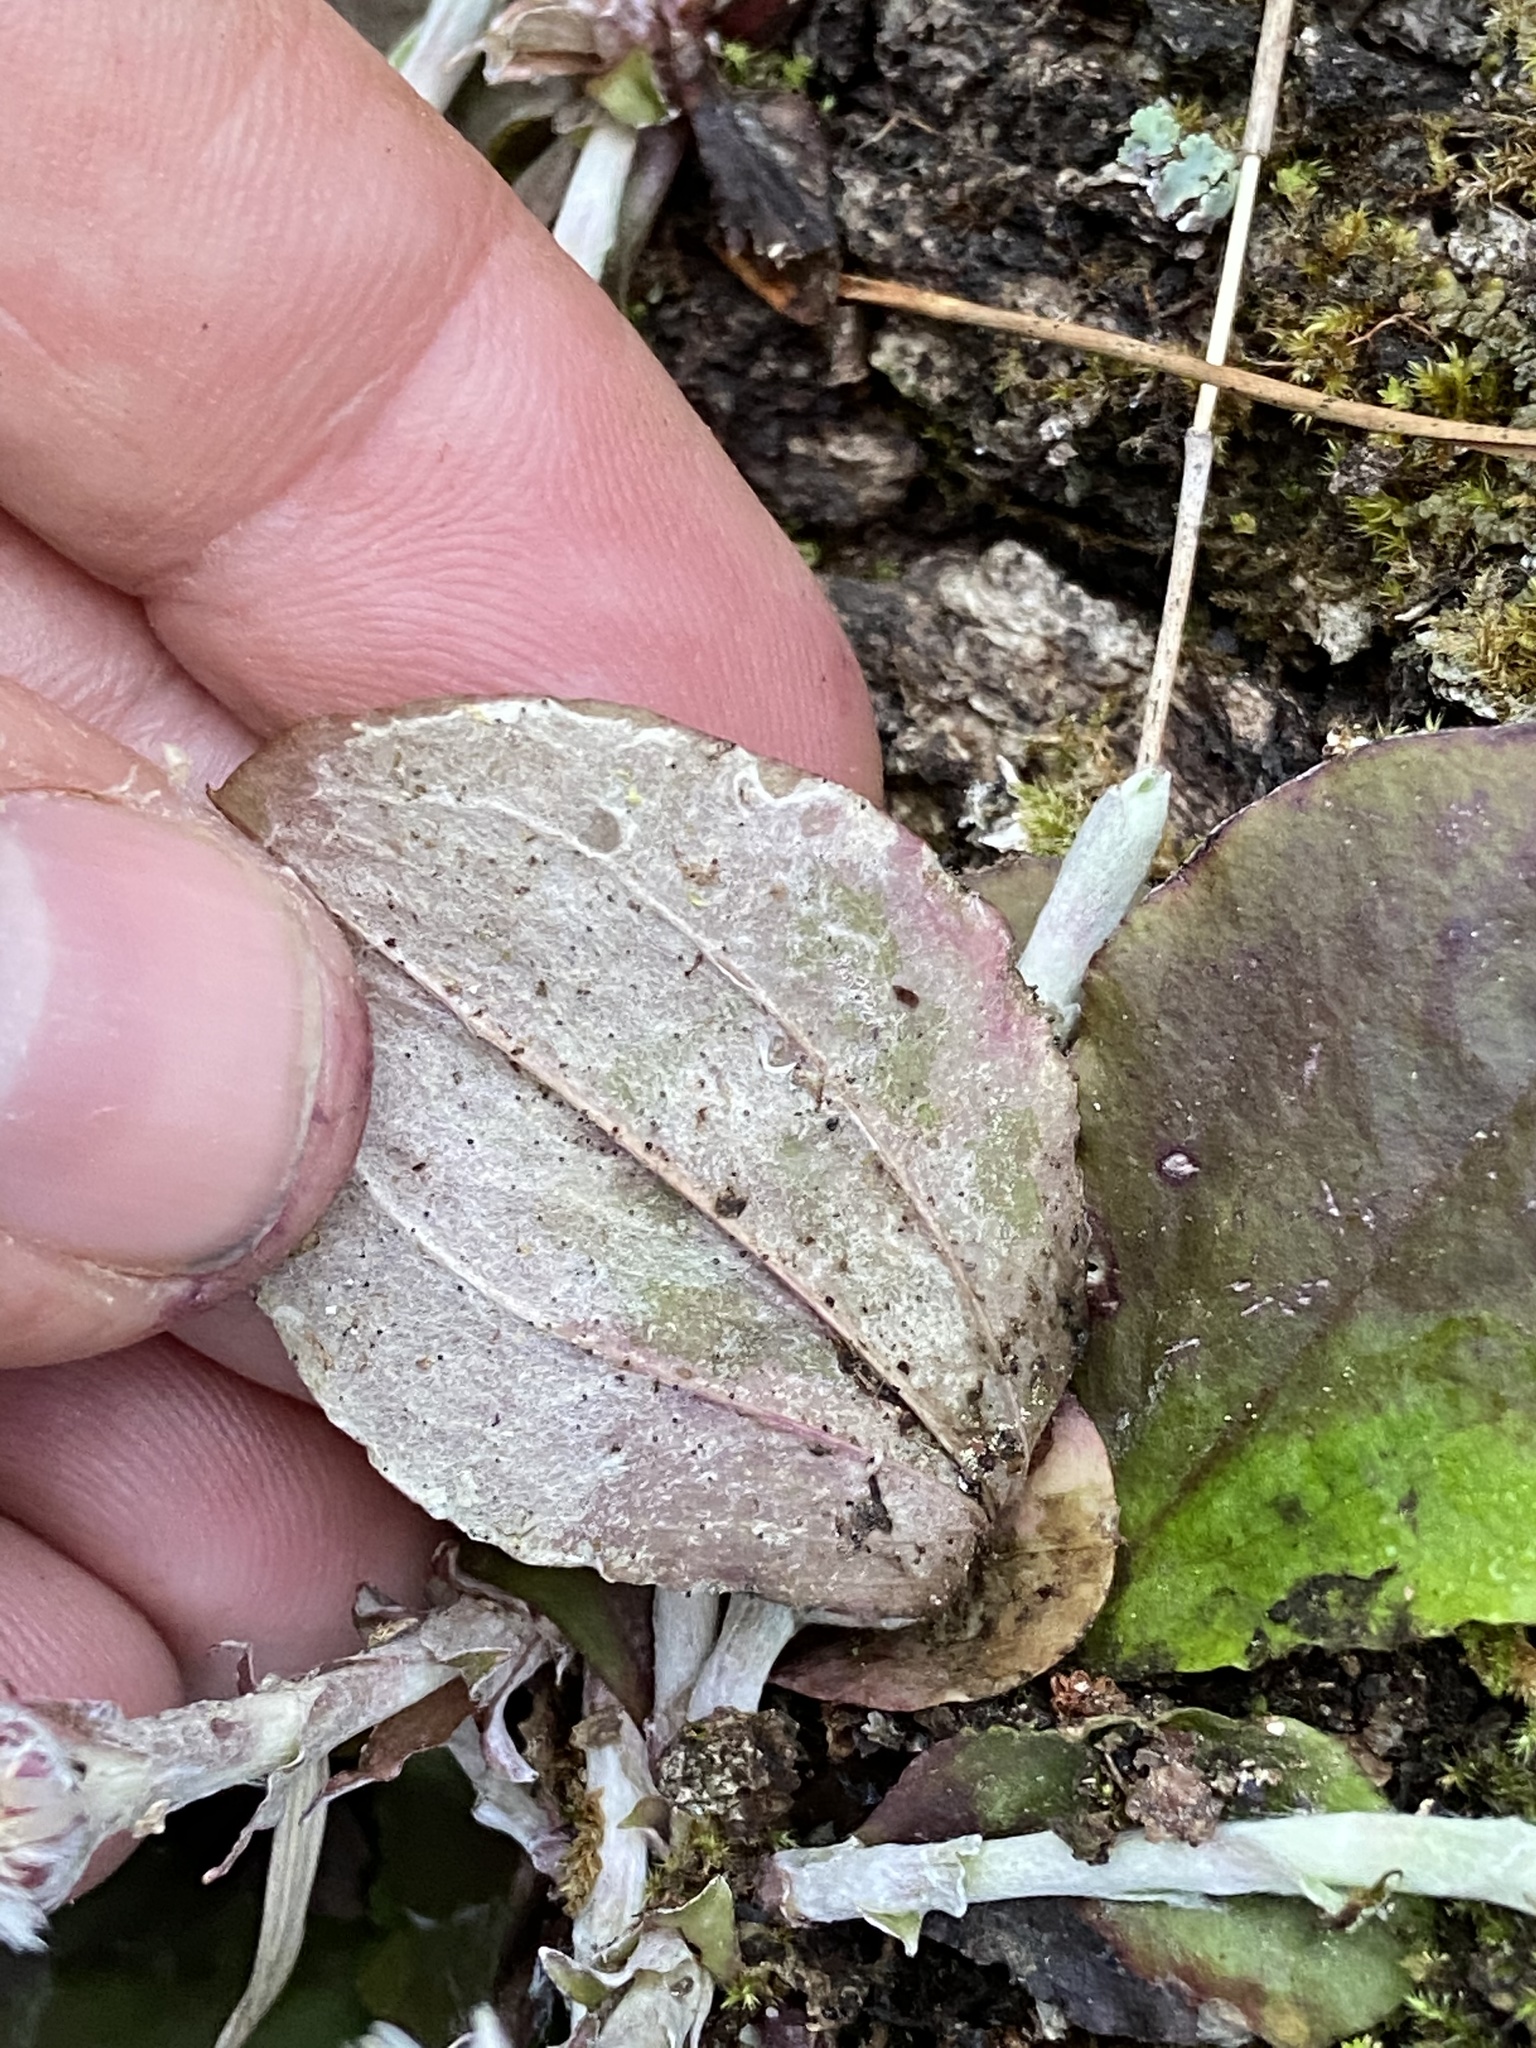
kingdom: Plantae
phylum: Tracheophyta
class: Magnoliopsida
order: Asterales
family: Asteraceae
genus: Antennaria
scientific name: Antennaria solitaria
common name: Single-head pussytoes
